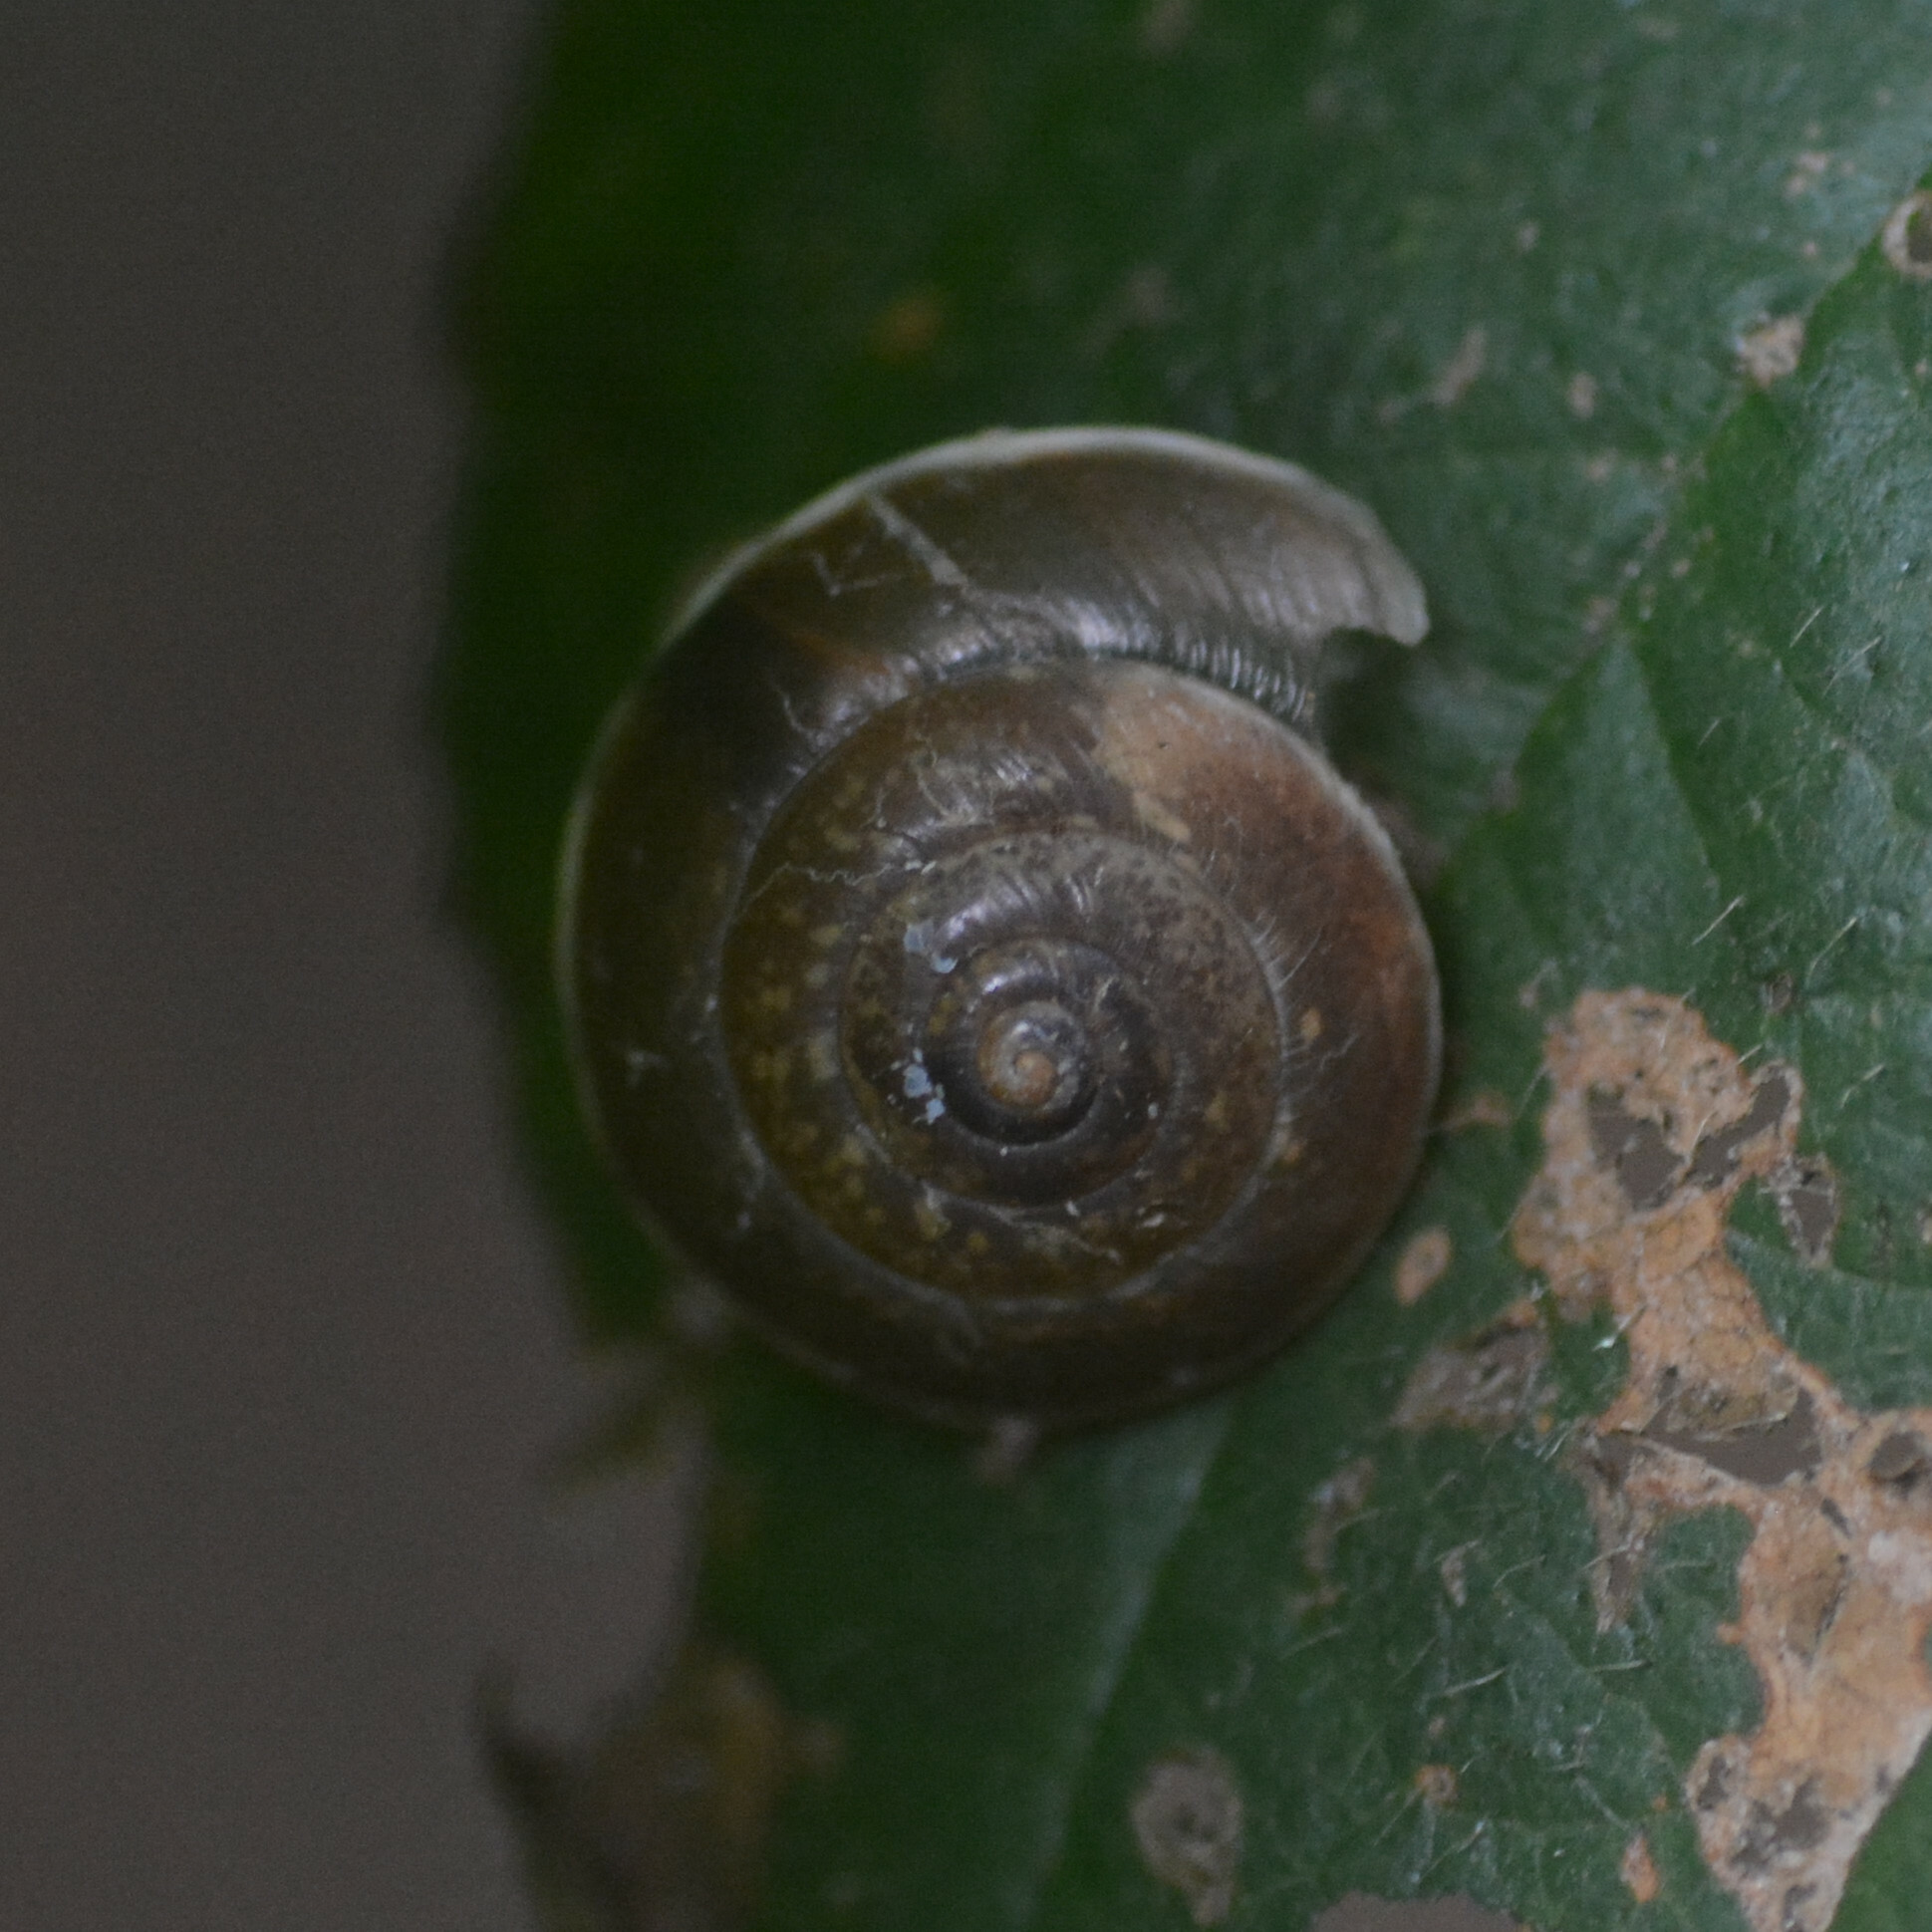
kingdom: Animalia
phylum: Mollusca
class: Gastropoda
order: Stylommatophora
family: Hygromiidae
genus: Hygromia
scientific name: Hygromia cinctella
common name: Girdled snail
